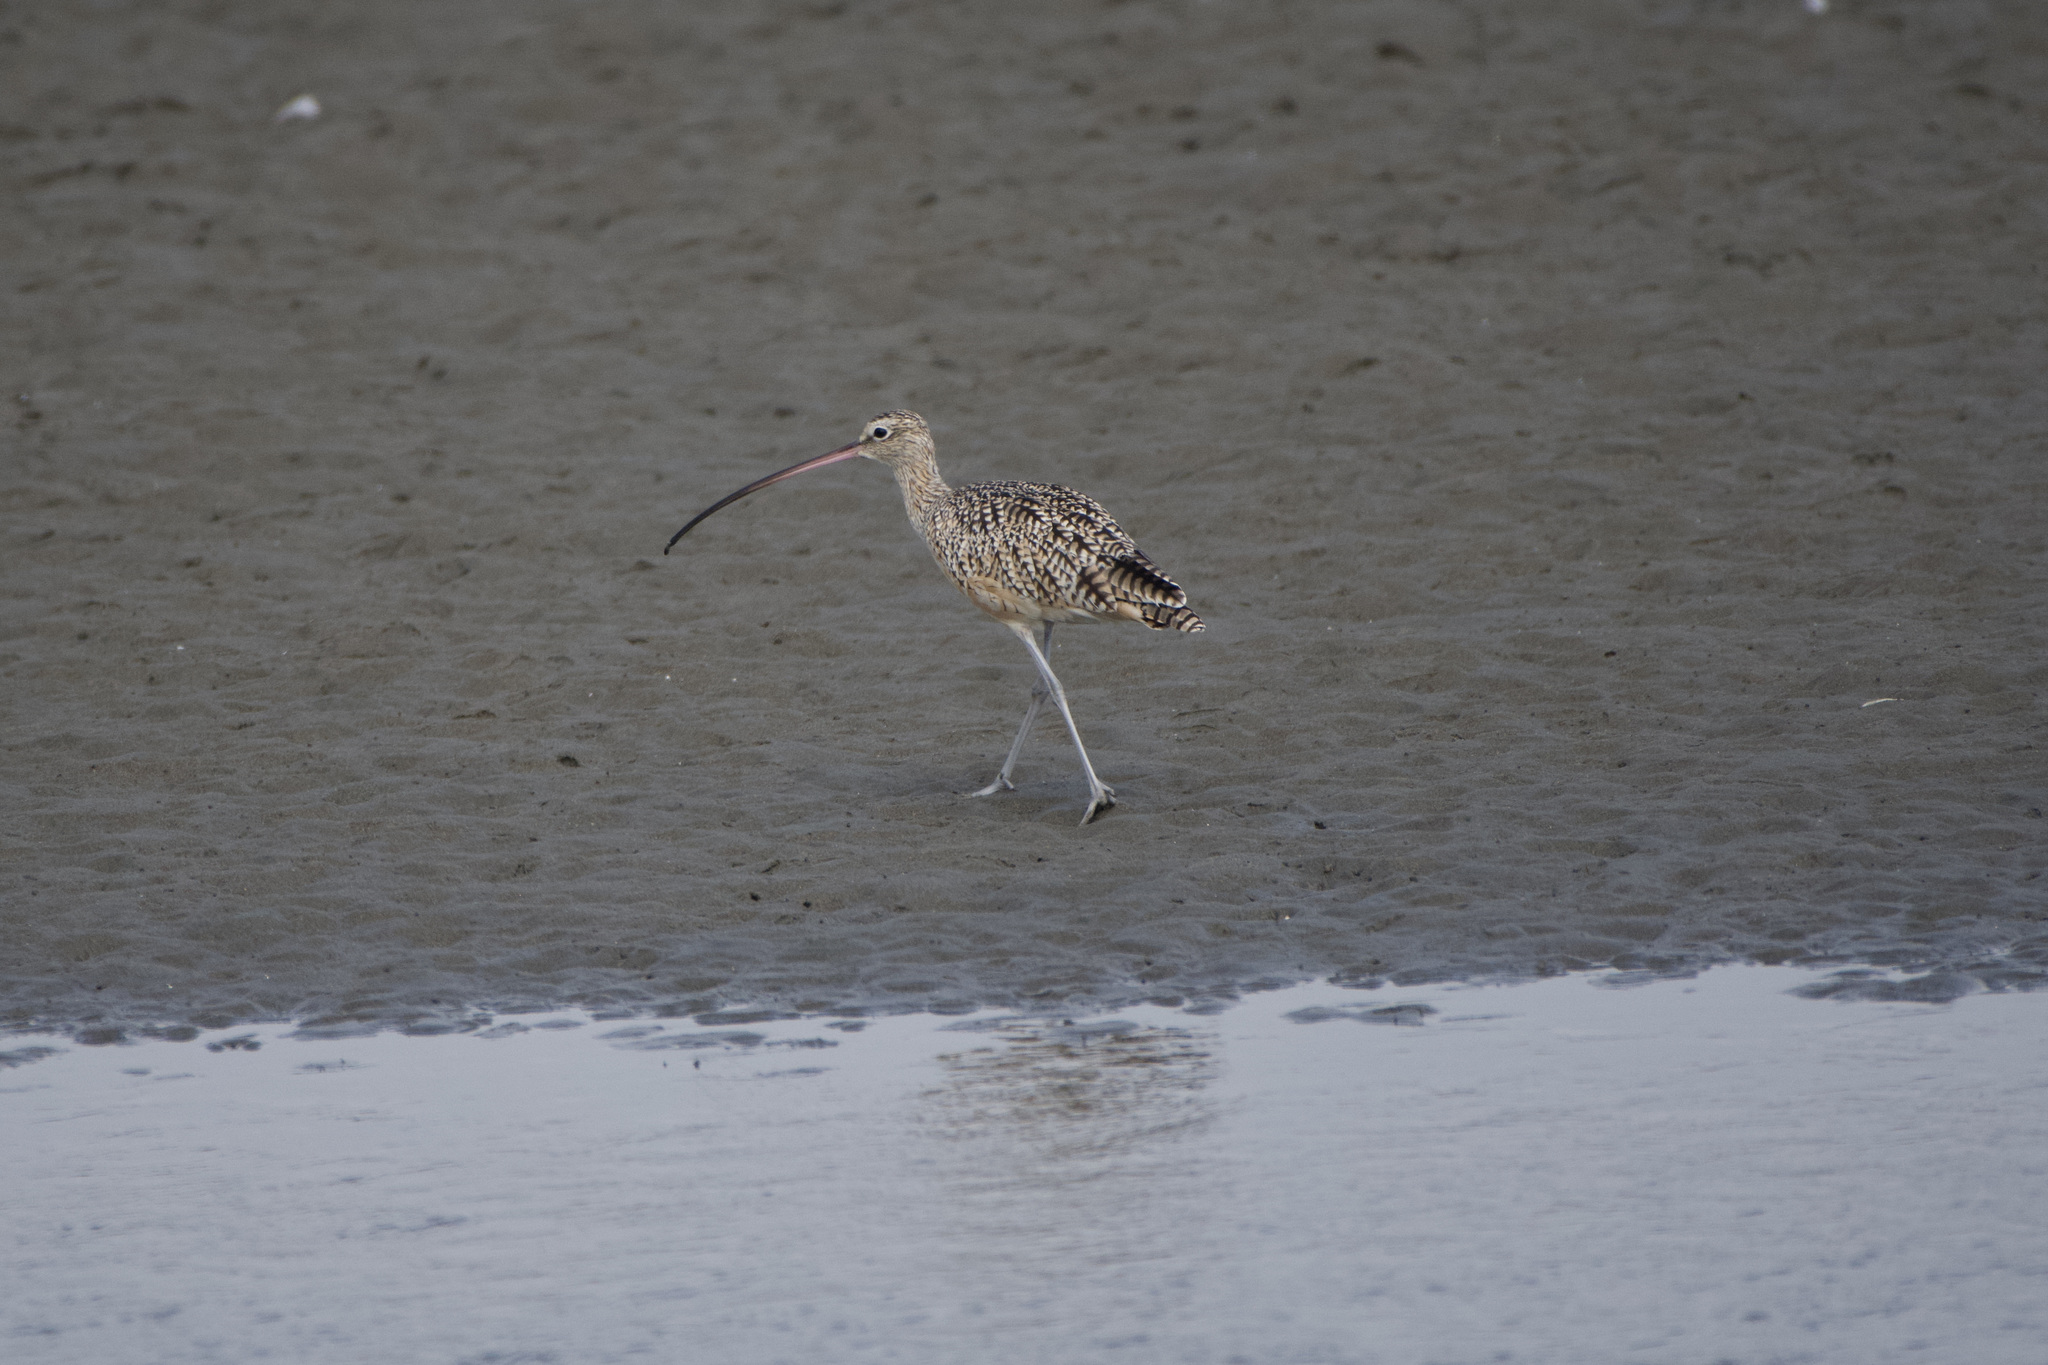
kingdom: Animalia
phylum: Chordata
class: Aves
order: Charadriiformes
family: Scolopacidae
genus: Numenius
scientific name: Numenius americanus
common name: Long-billed curlew
